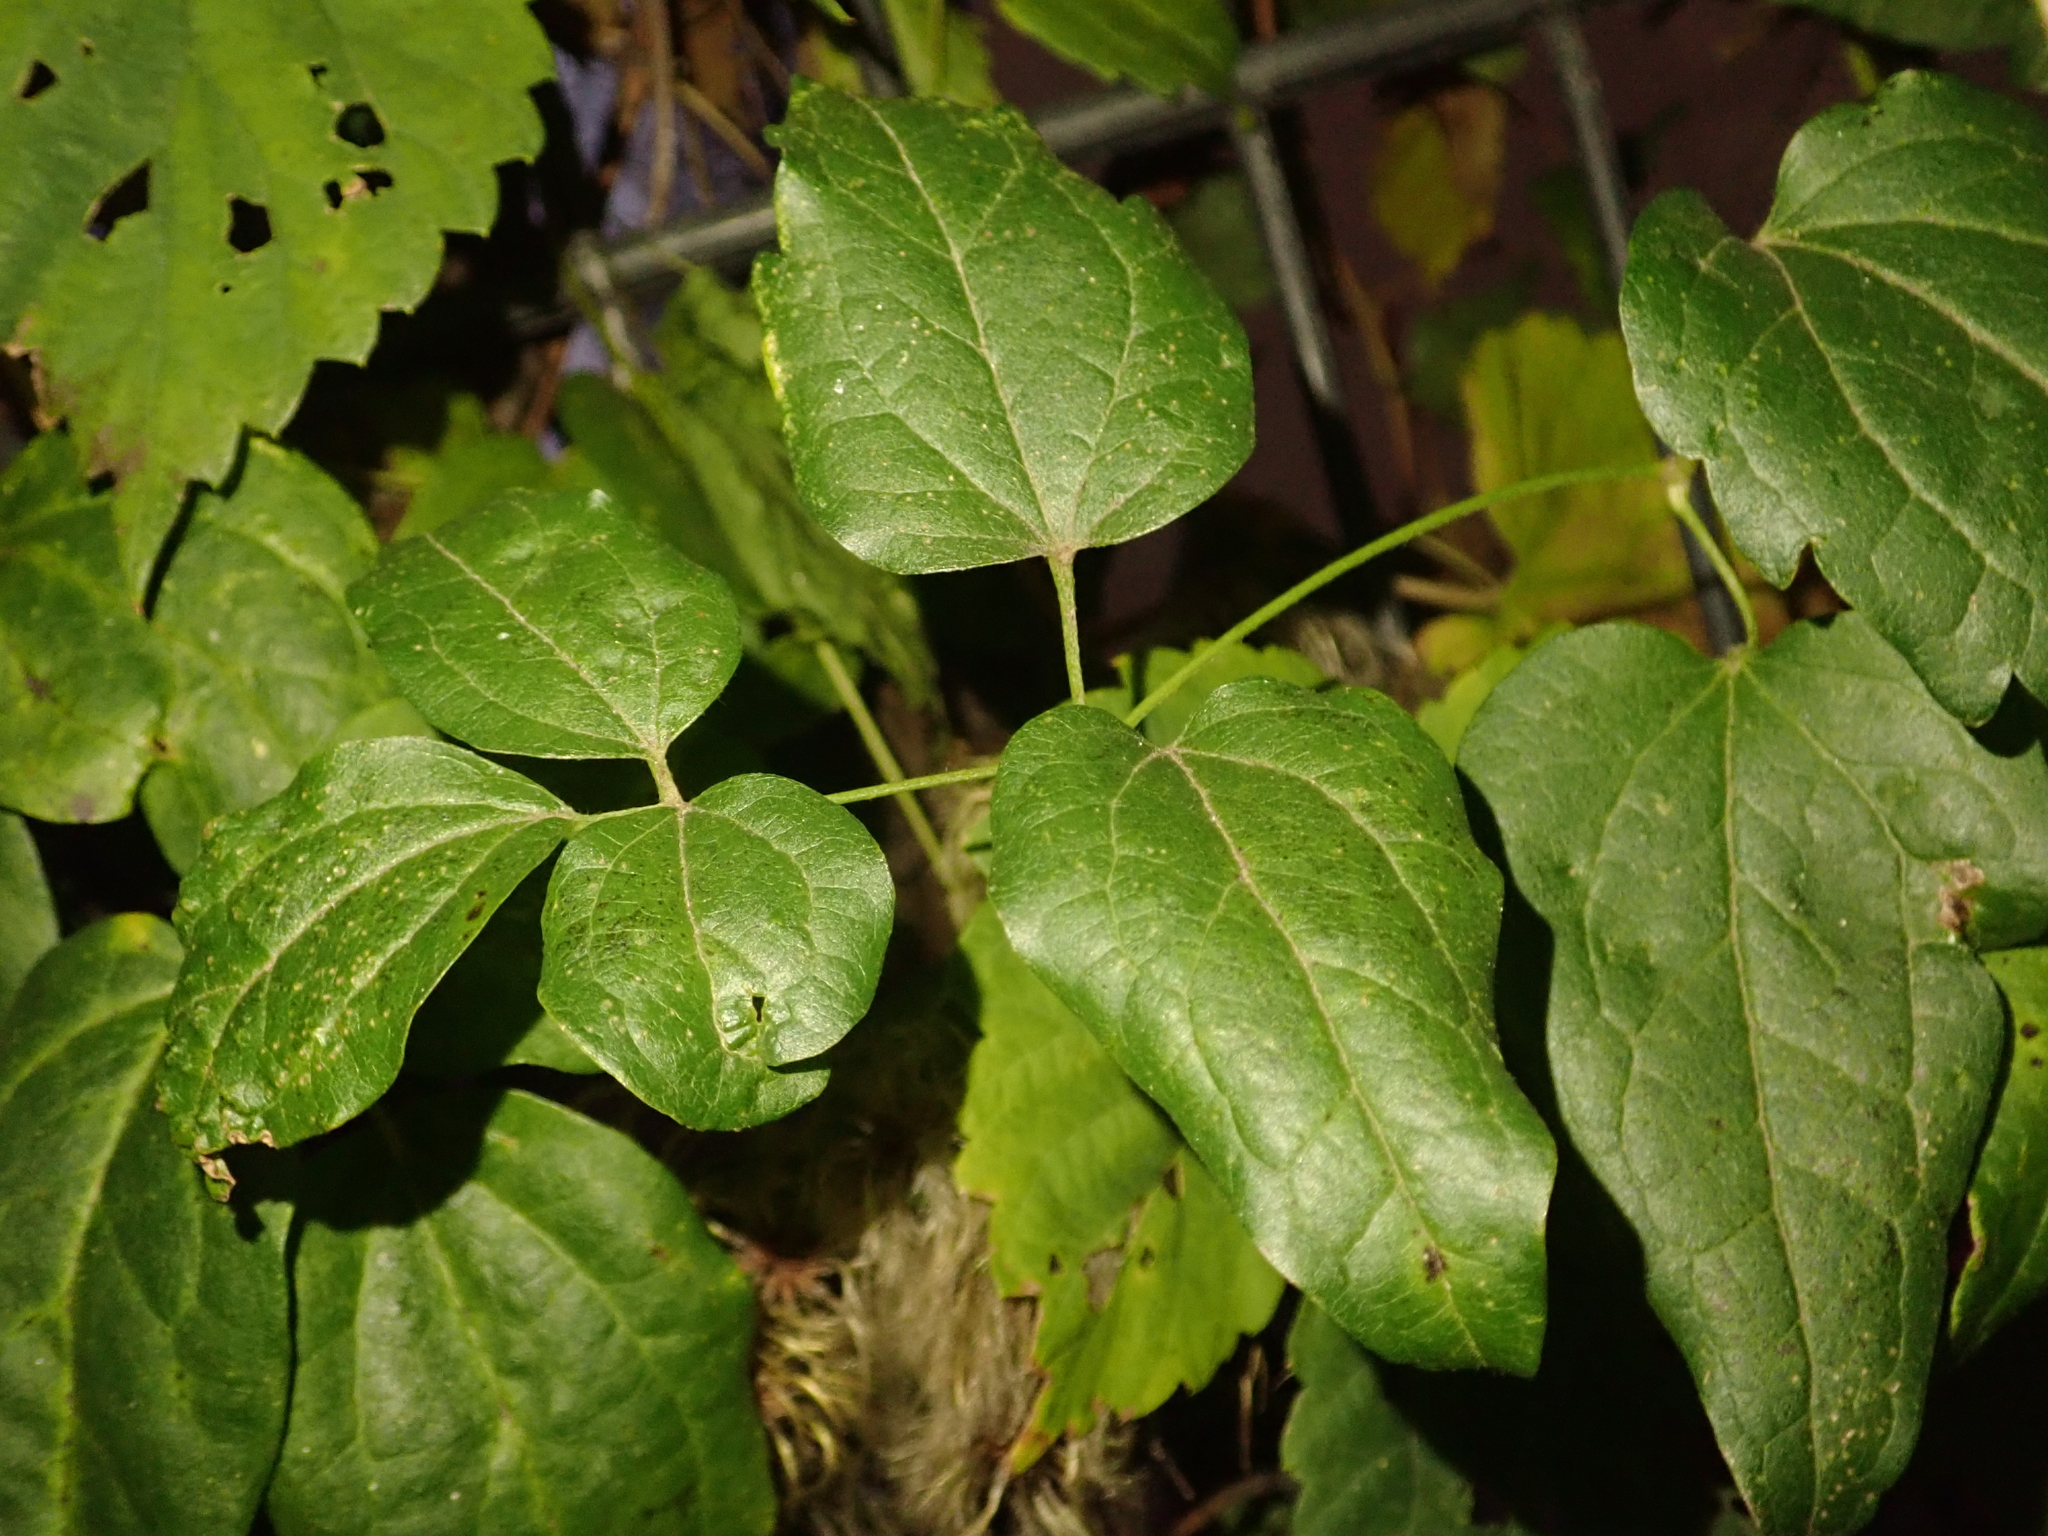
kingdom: Plantae
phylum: Tracheophyta
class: Magnoliopsida
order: Ranunculales
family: Ranunculaceae
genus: Clematis
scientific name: Clematis vitalba
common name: Evergreen clematis
